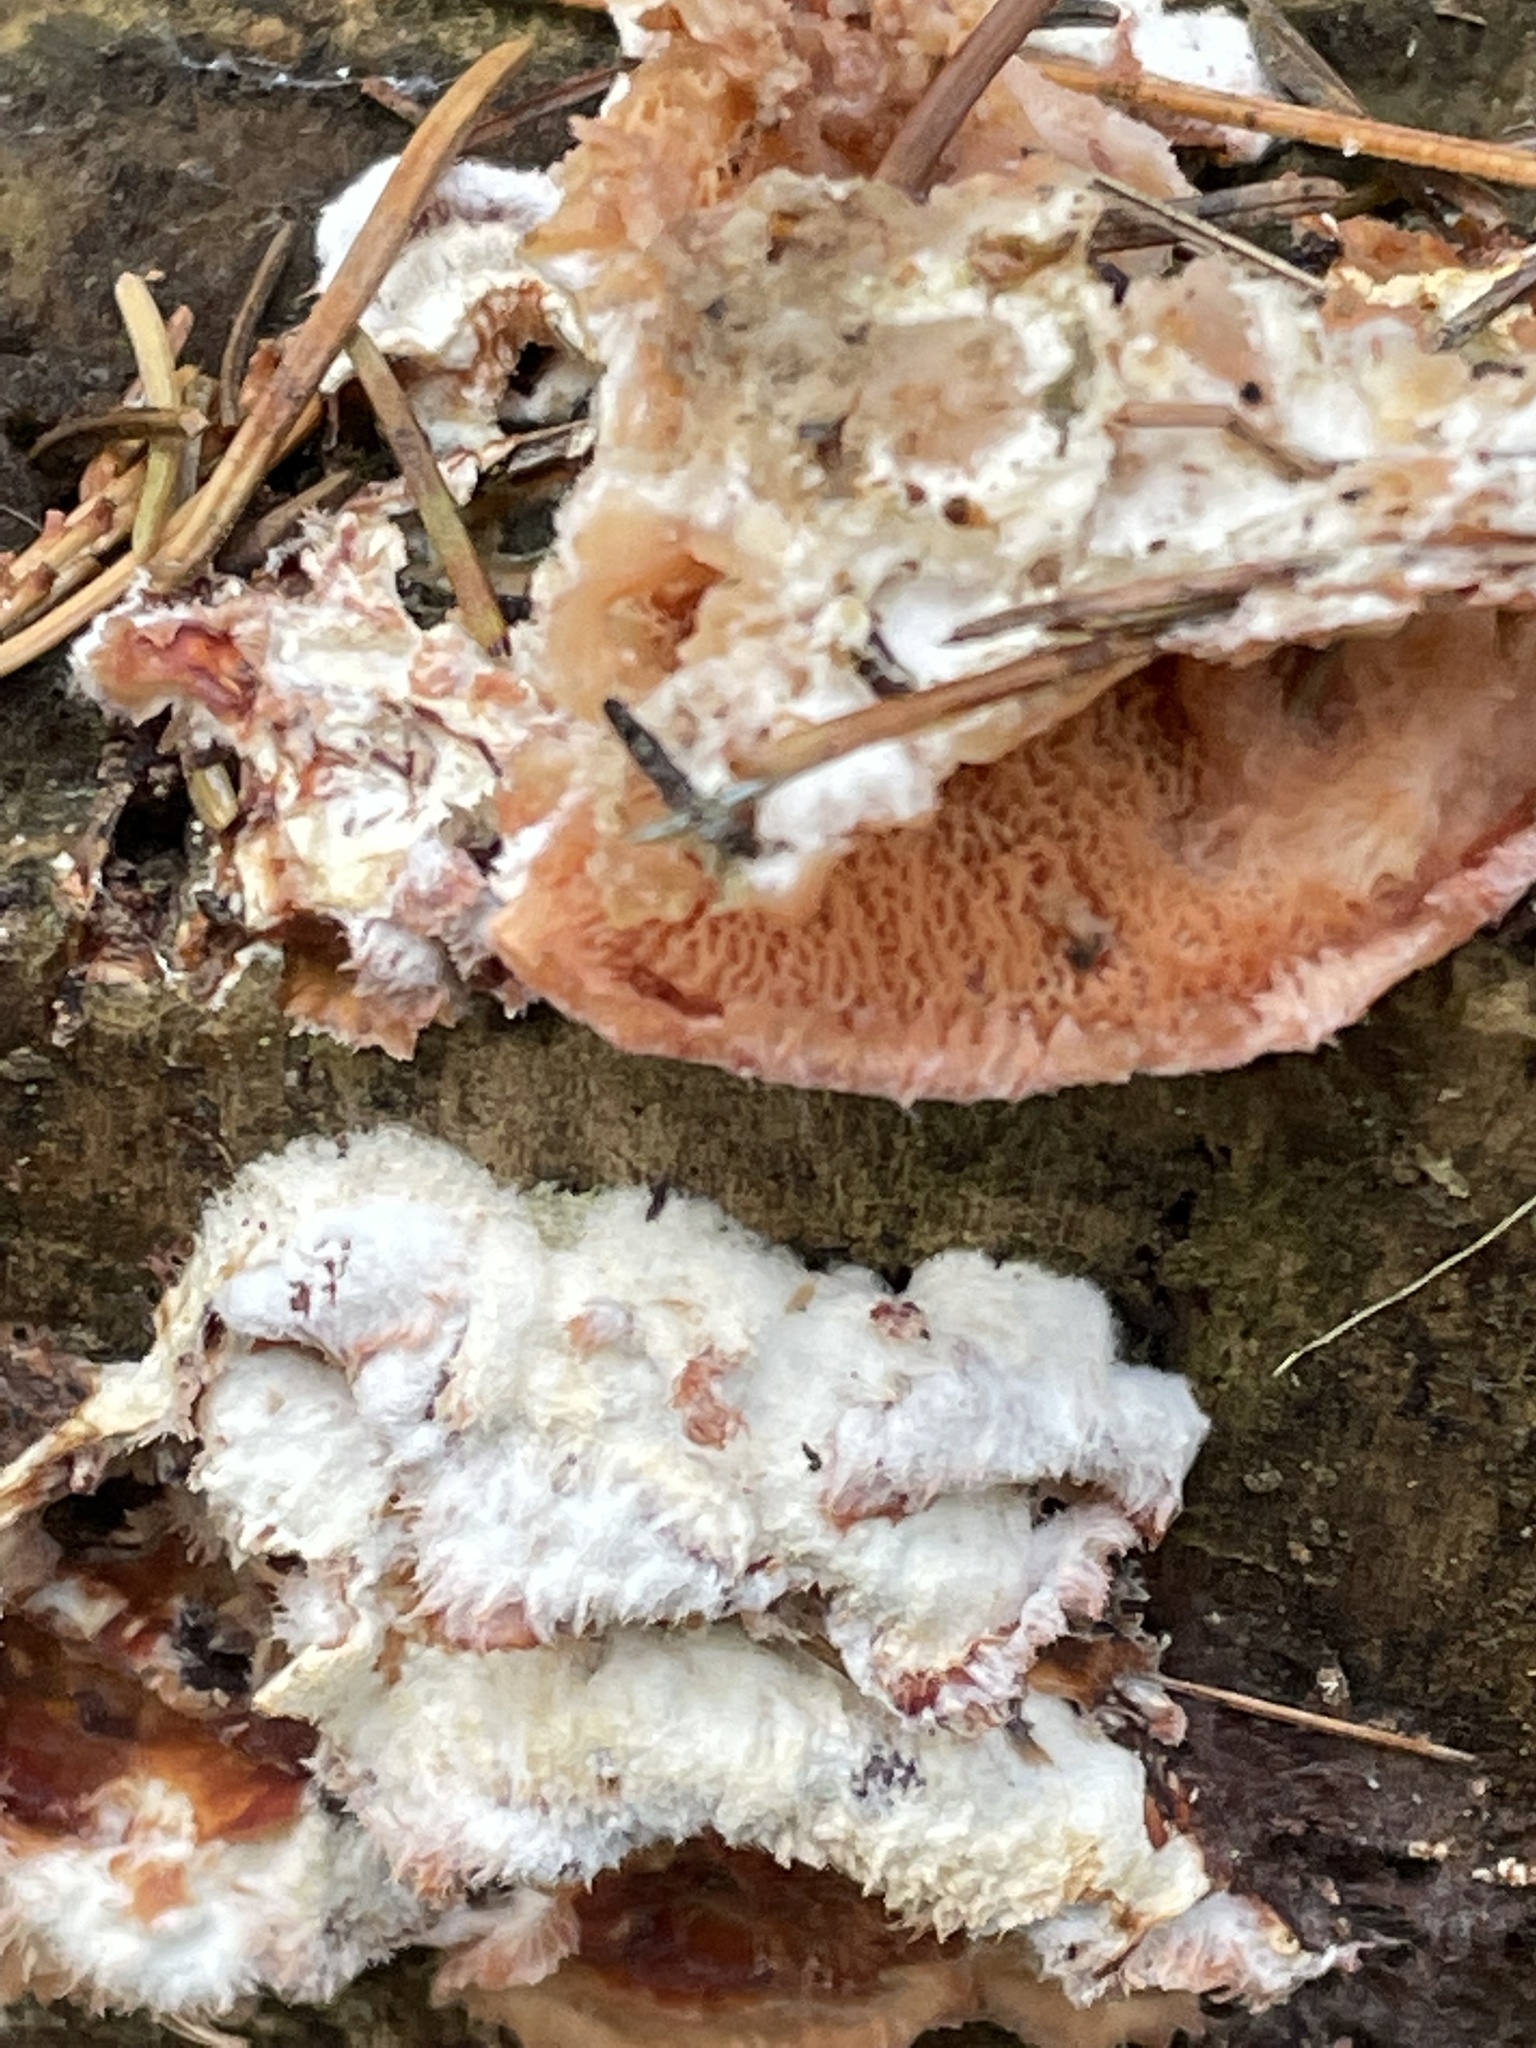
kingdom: Fungi
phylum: Basidiomycota
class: Agaricomycetes
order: Polyporales
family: Meruliaceae
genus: Phlebia
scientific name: Phlebia tremellosa
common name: Jelly rot
